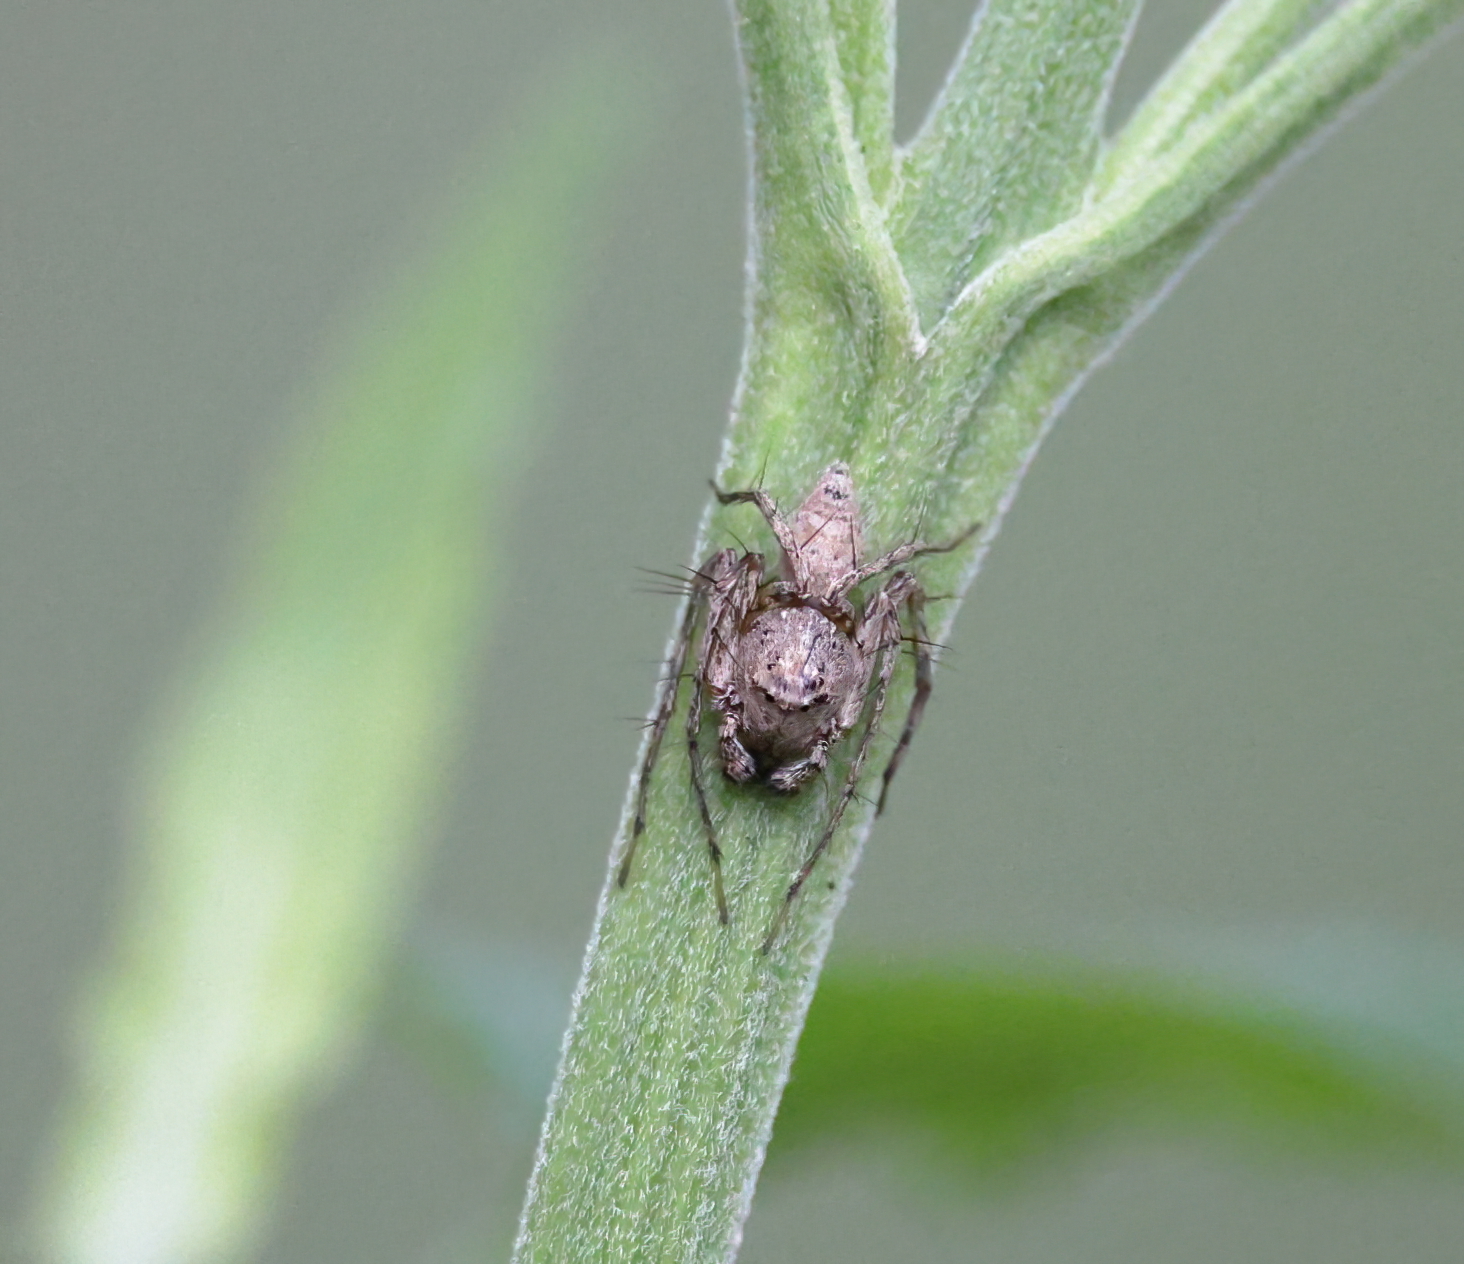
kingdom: Animalia
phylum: Arthropoda
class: Arachnida
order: Araneae
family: Oxyopidae
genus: Hamataliwa
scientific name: Hamataliwa grisea
